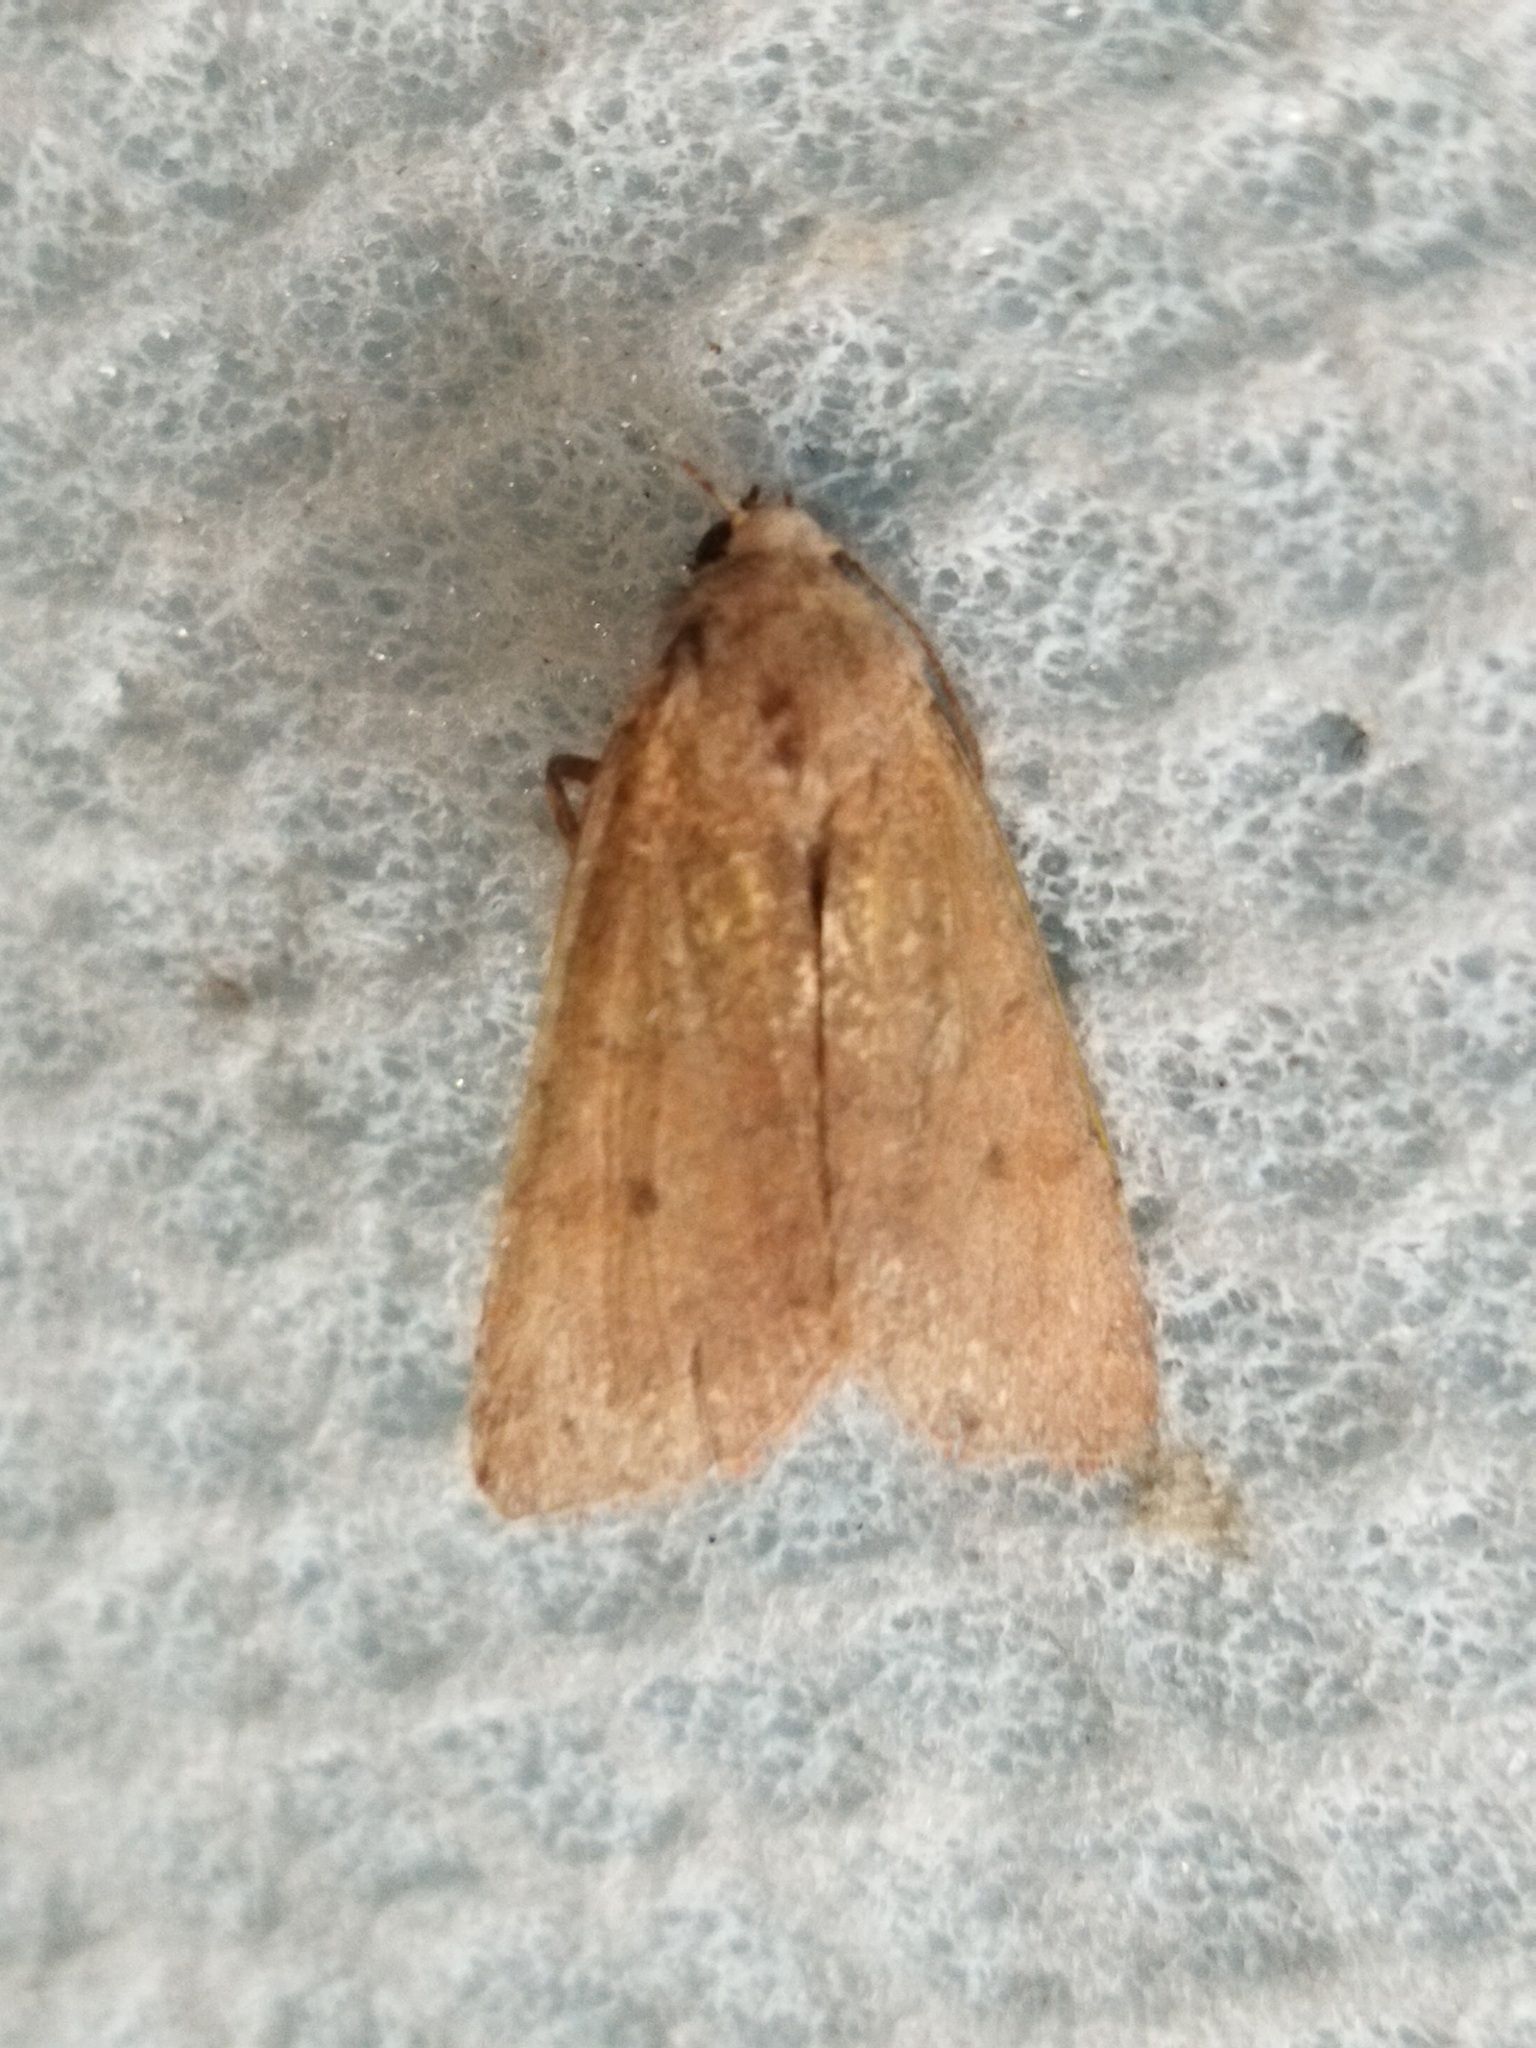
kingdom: Animalia
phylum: Arthropoda
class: Insecta
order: Lepidoptera
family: Noctuidae
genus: Agrochola
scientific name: Agrochola lychnidis
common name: Beaded chestnut
